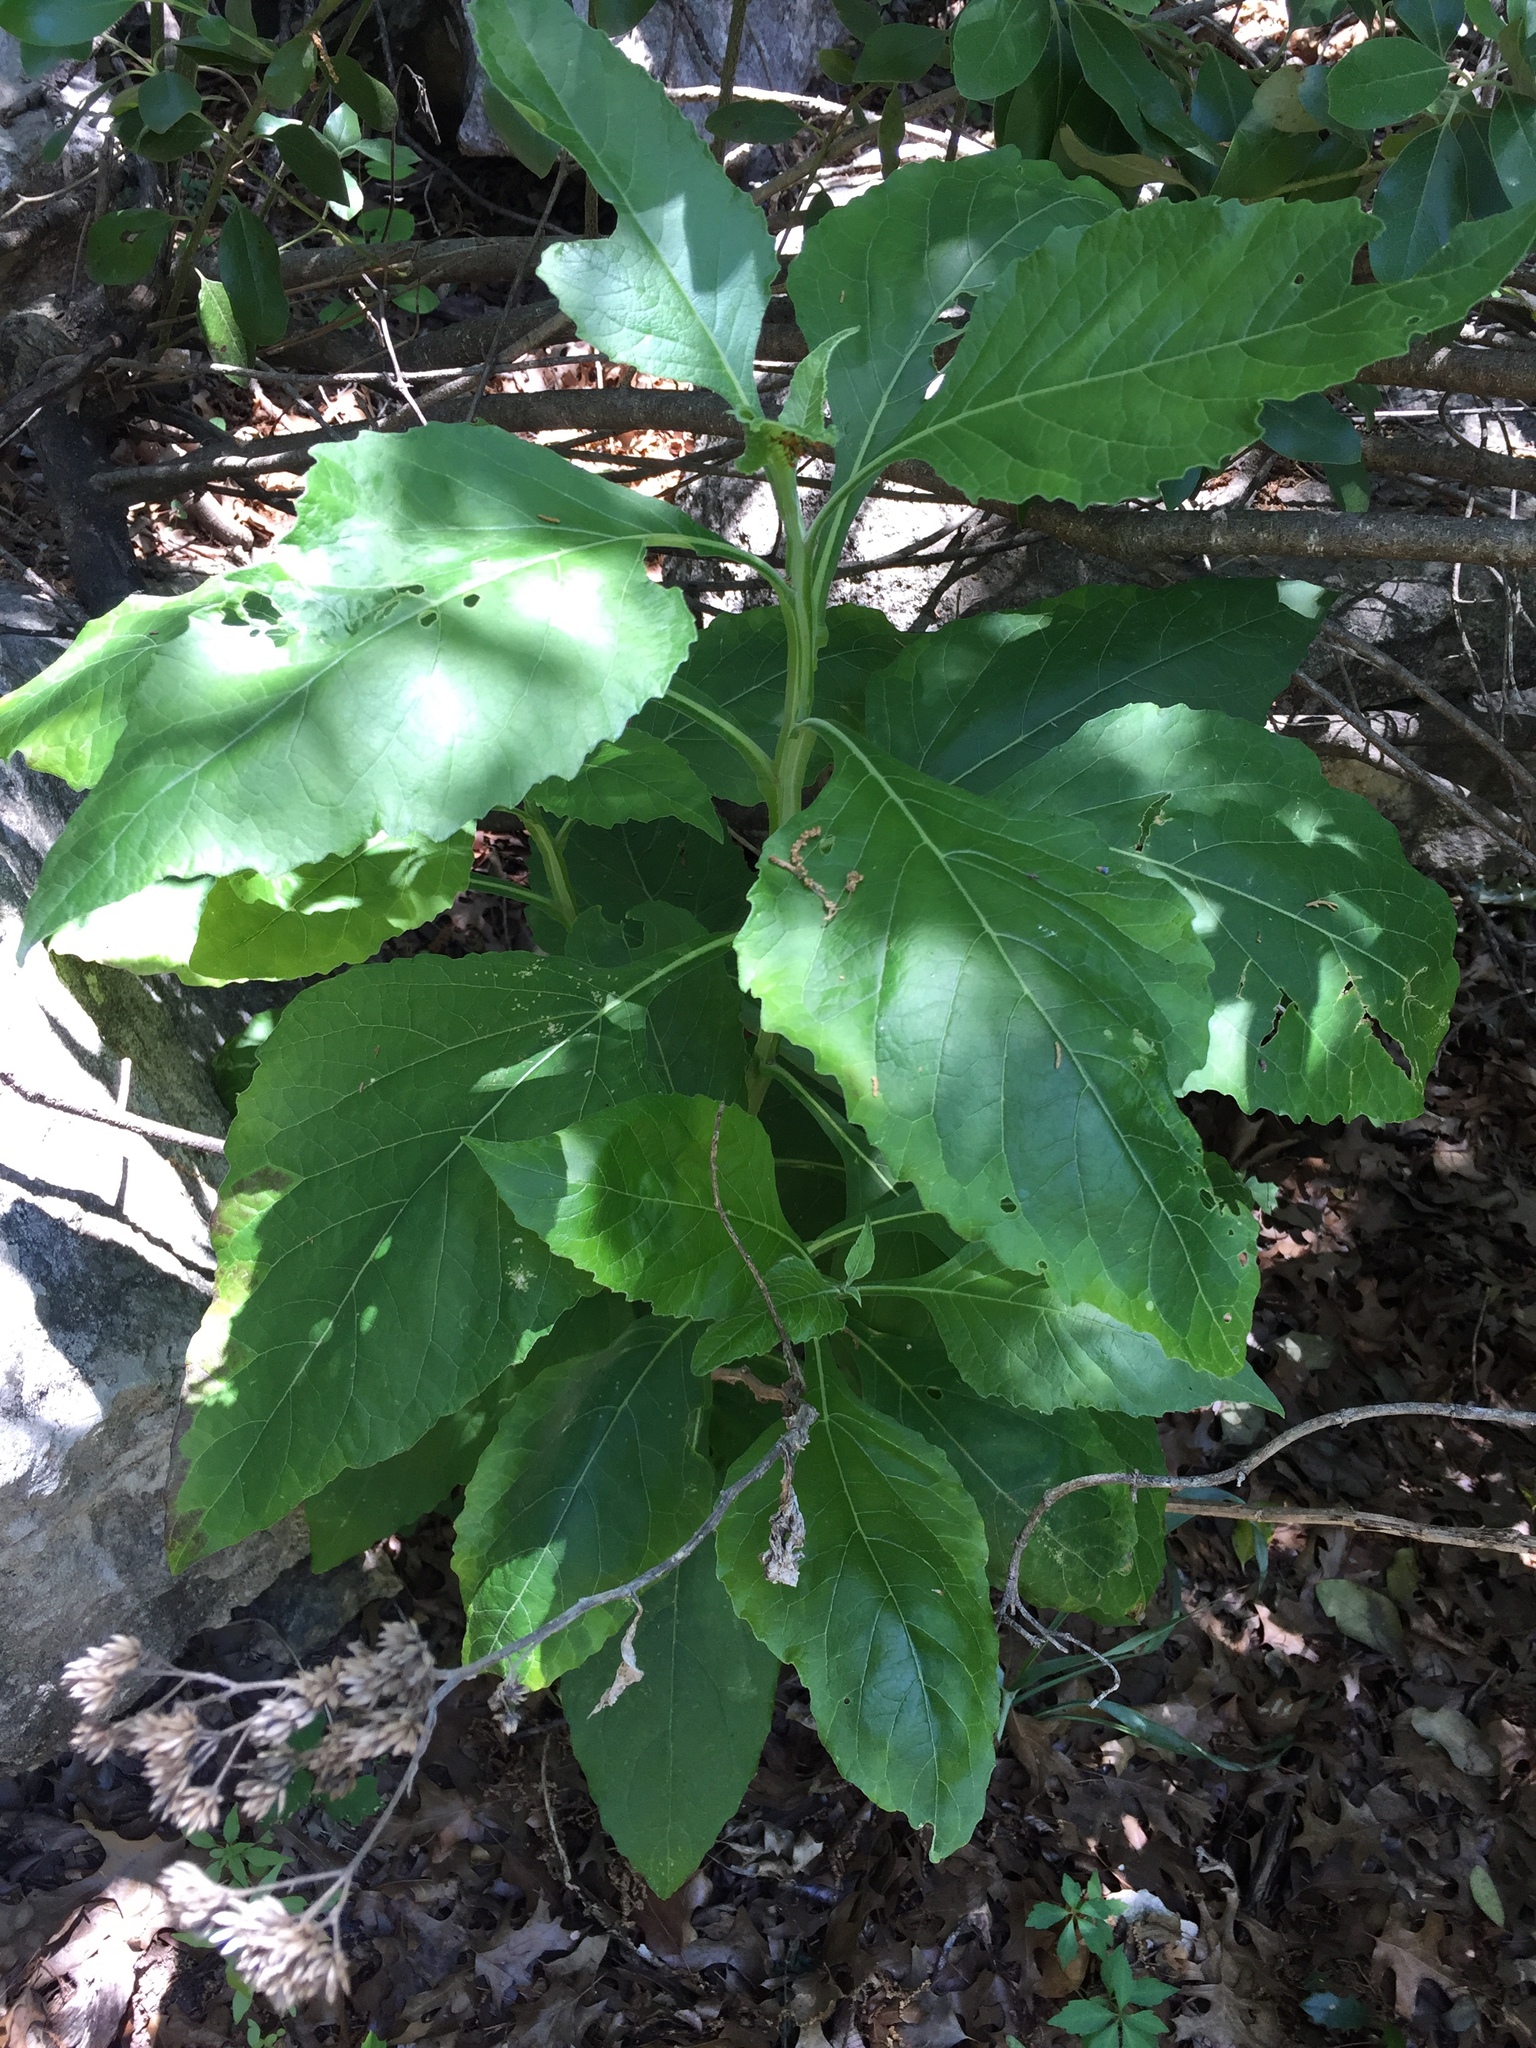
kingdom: Plantae
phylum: Tracheophyta
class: Magnoliopsida
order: Asterales
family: Asteraceae
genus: Verbesina
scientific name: Verbesina virginica
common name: Frostweed
